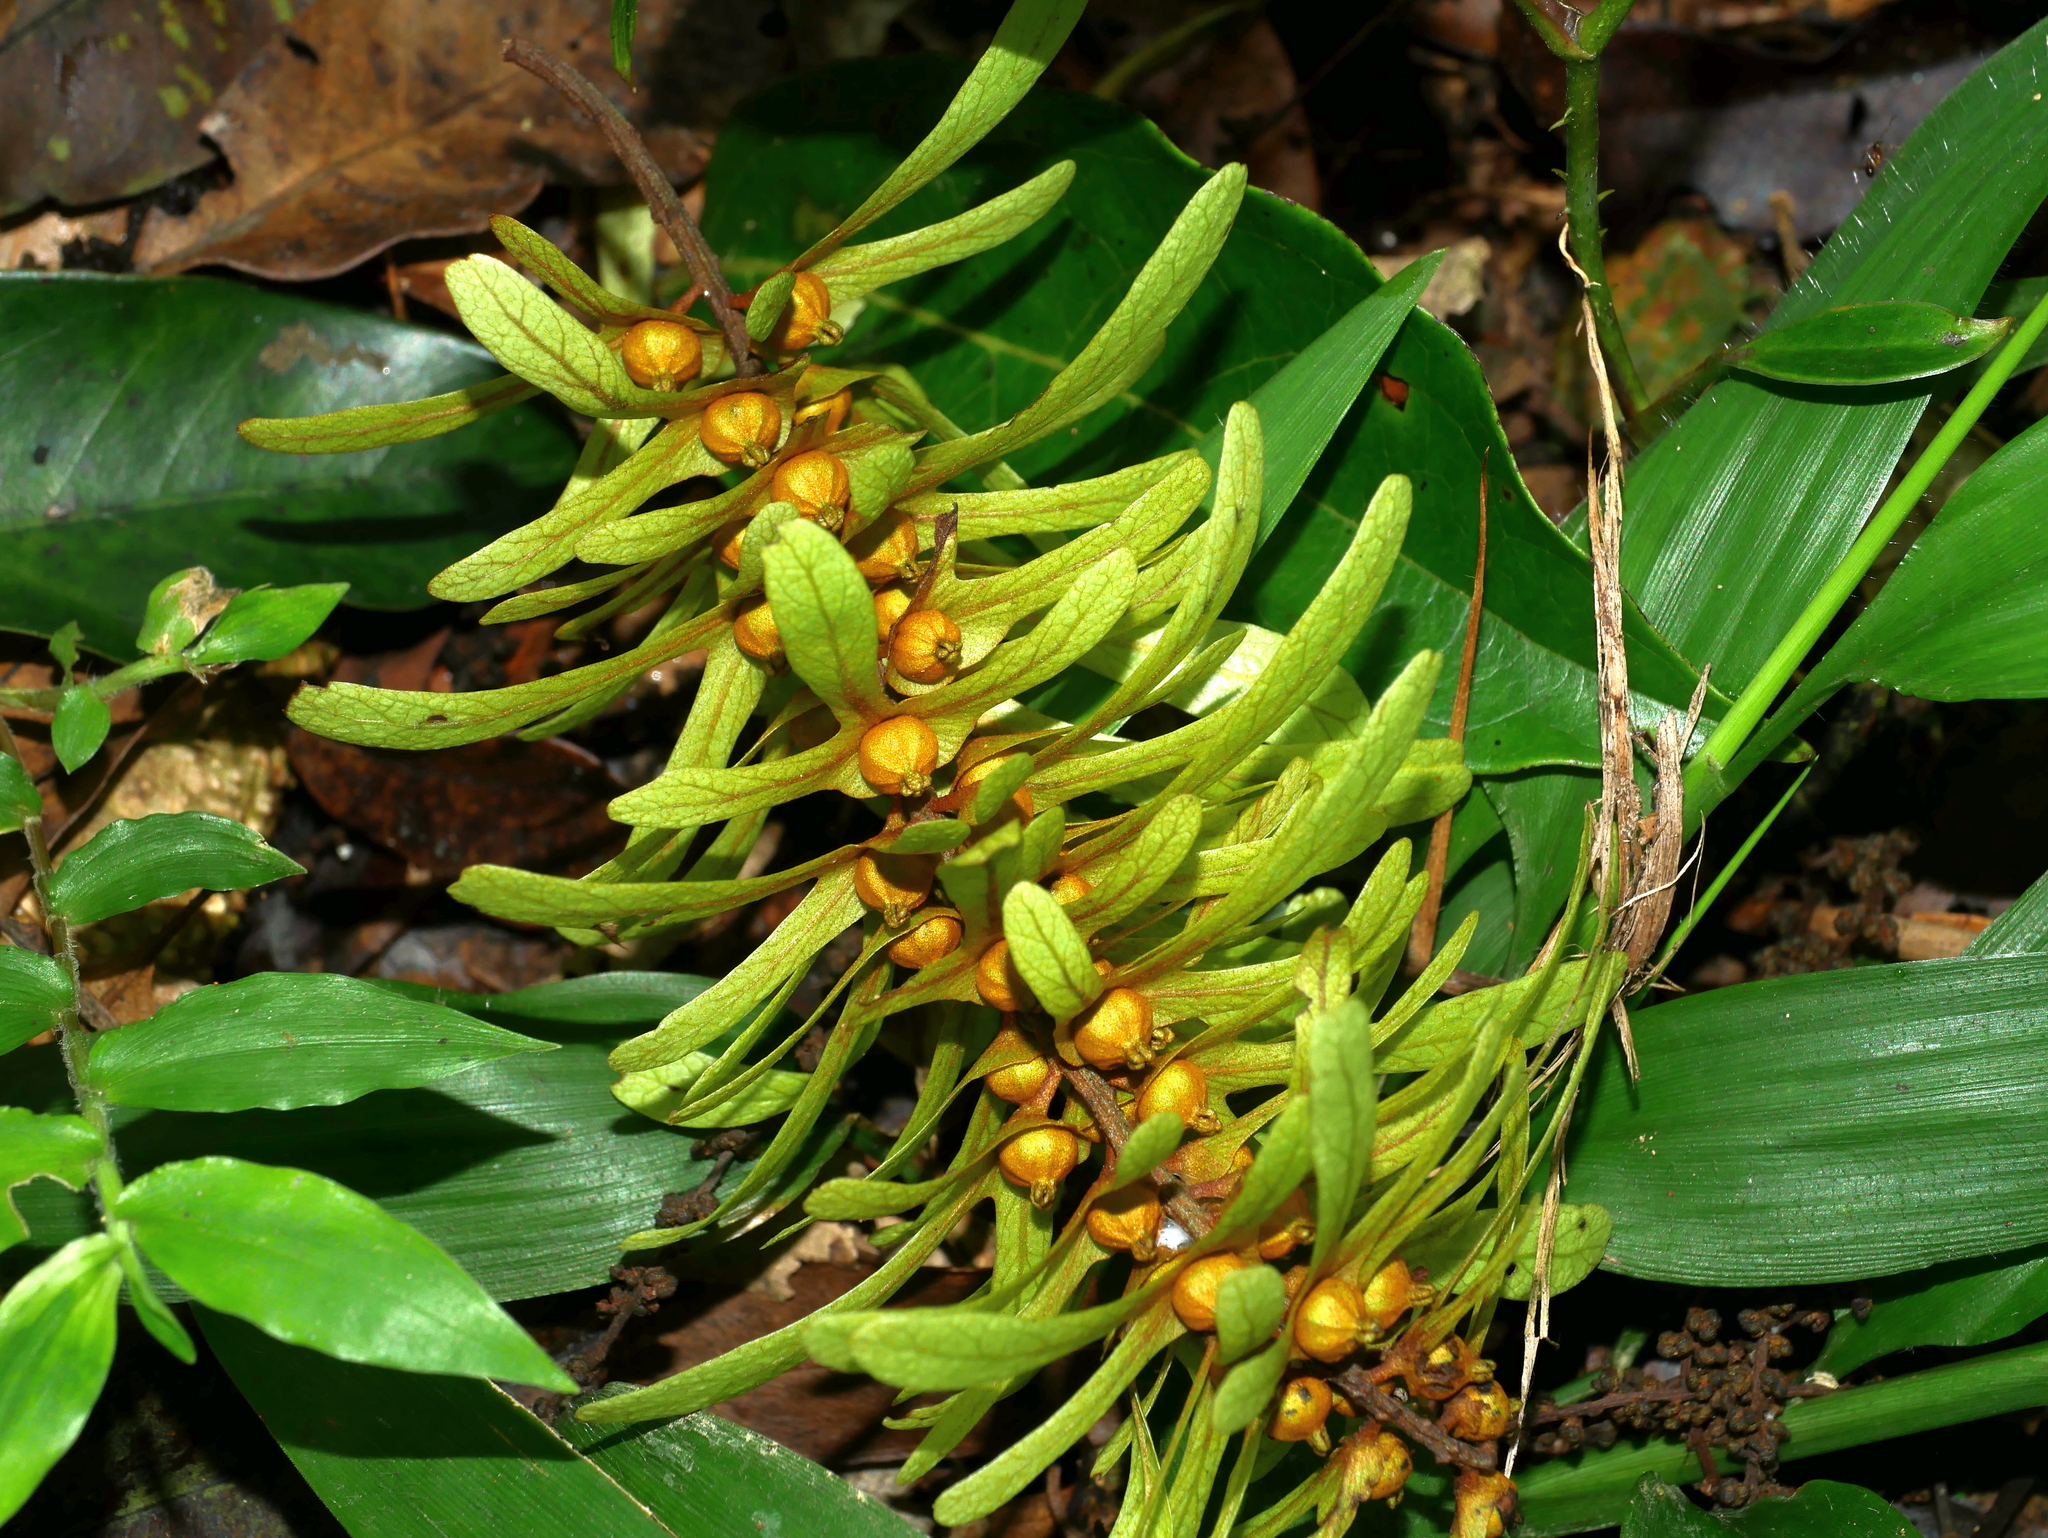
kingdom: Plantae
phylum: Tracheophyta
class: Magnoliopsida
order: Fagales
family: Juglandaceae
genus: Engelhardia
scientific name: Engelhardia roxburghiana
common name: Golden malay beam
